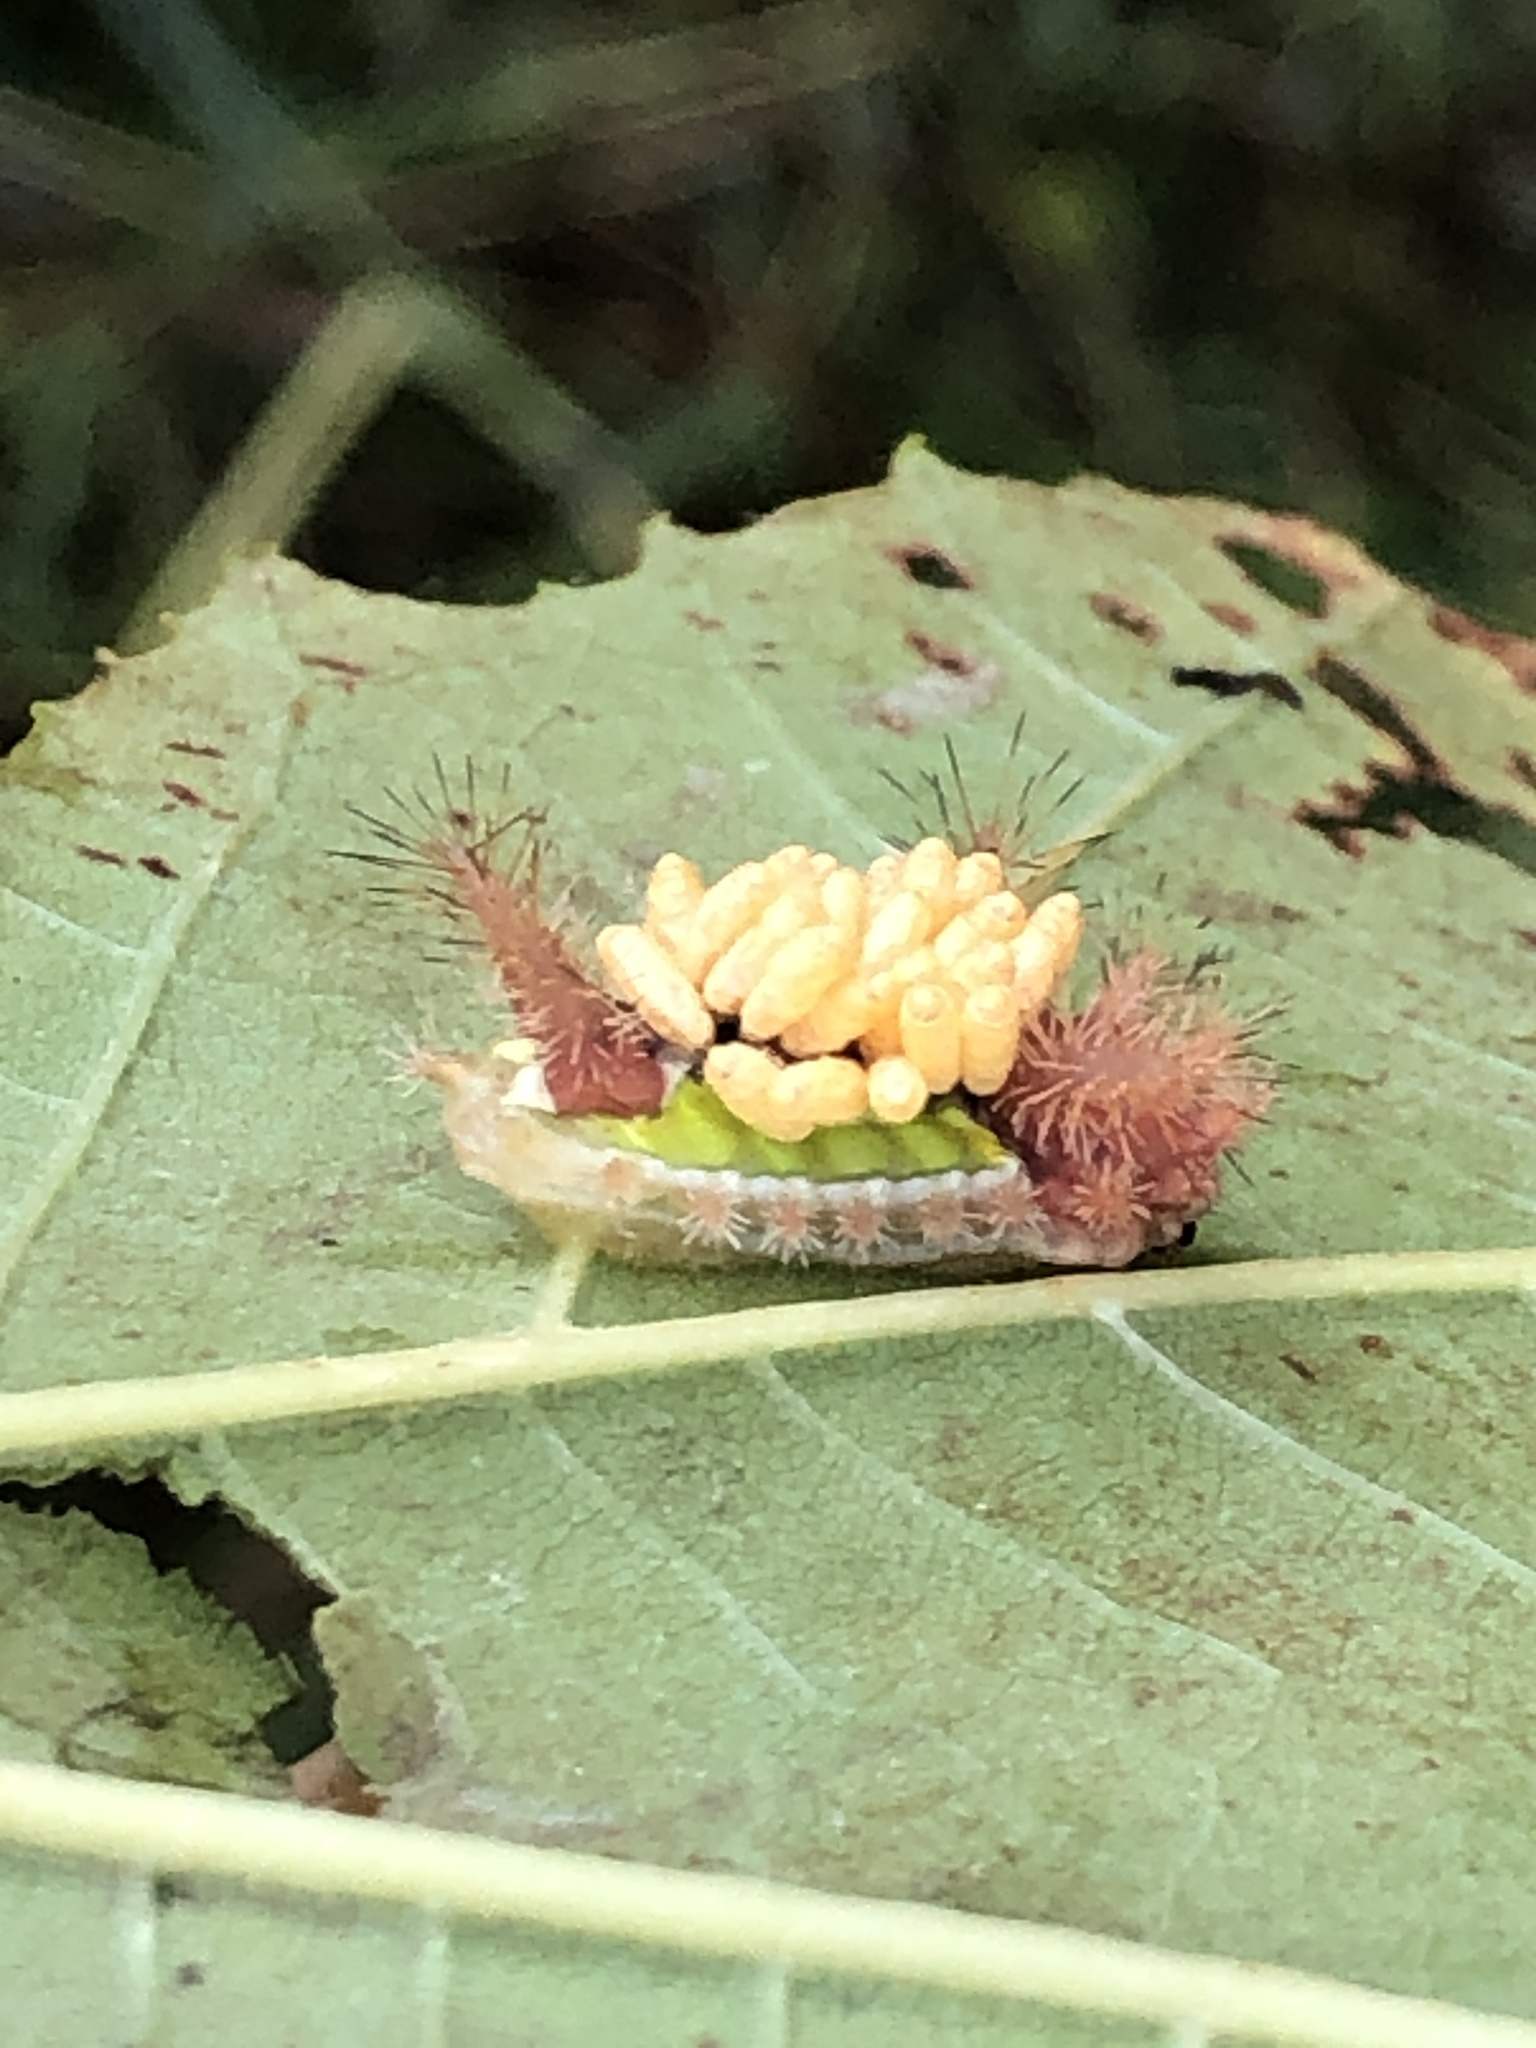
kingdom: Animalia
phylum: Arthropoda
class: Insecta
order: Lepidoptera
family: Limacodidae
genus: Acharia
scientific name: Acharia stimulea
